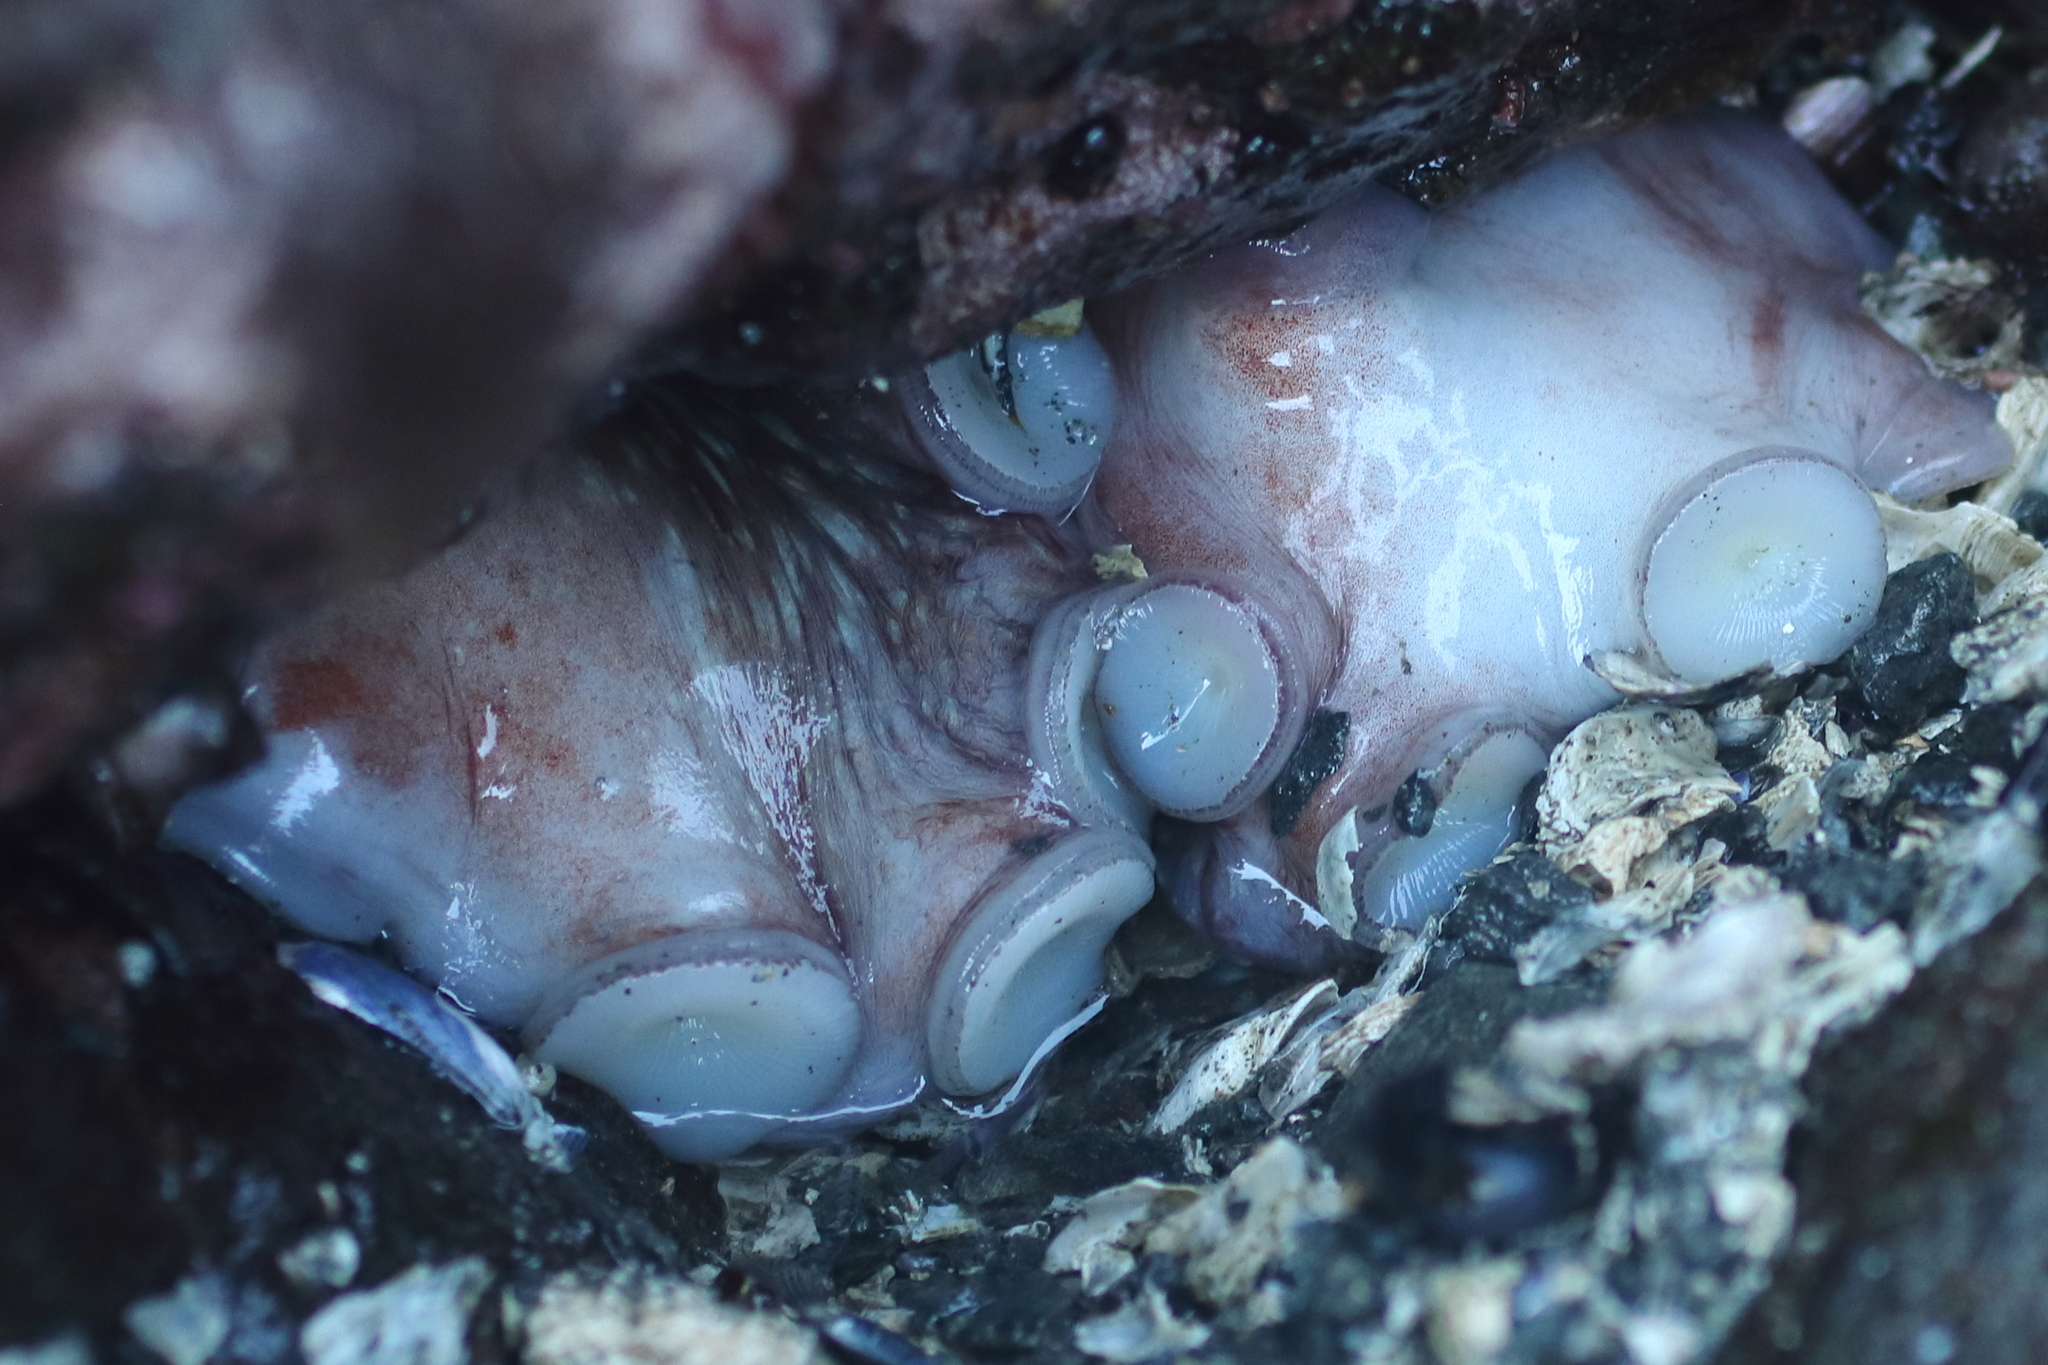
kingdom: Animalia
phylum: Mollusca
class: Cephalopoda
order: Octopoda
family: Enteroctopodidae
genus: Enteroctopus
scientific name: Enteroctopus dofleini
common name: Giant north pacific octopus
